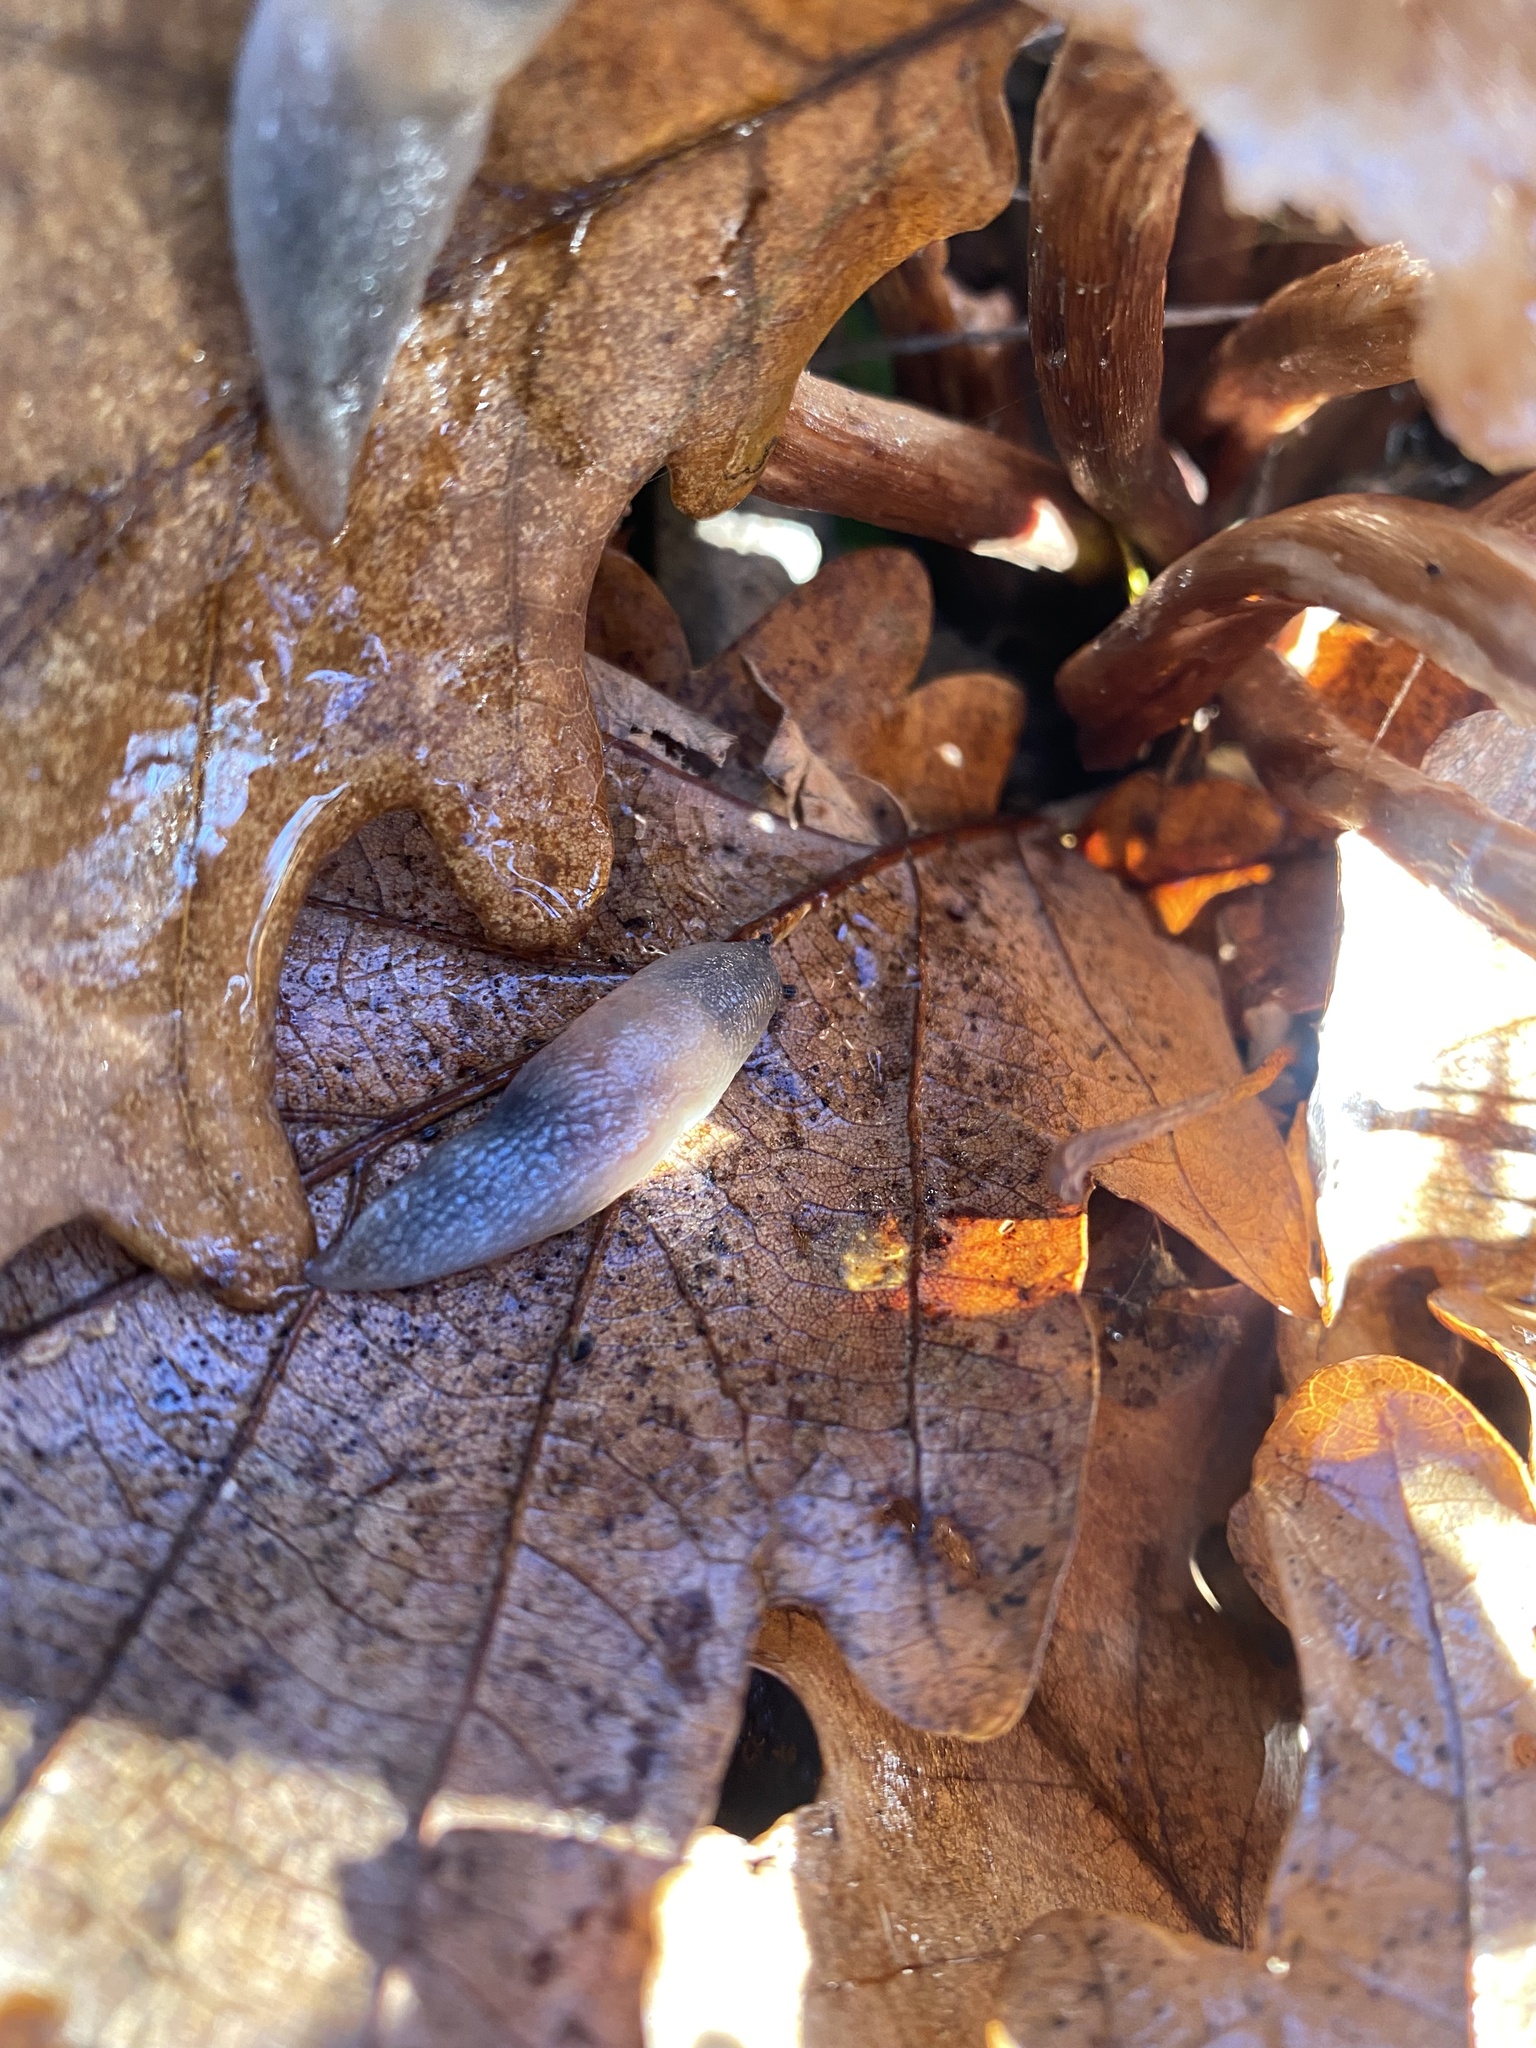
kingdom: Animalia
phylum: Mollusca
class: Gastropoda
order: Stylommatophora
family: Agriolimacidae
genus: Krynickillus
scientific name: Krynickillus melanocephalus
